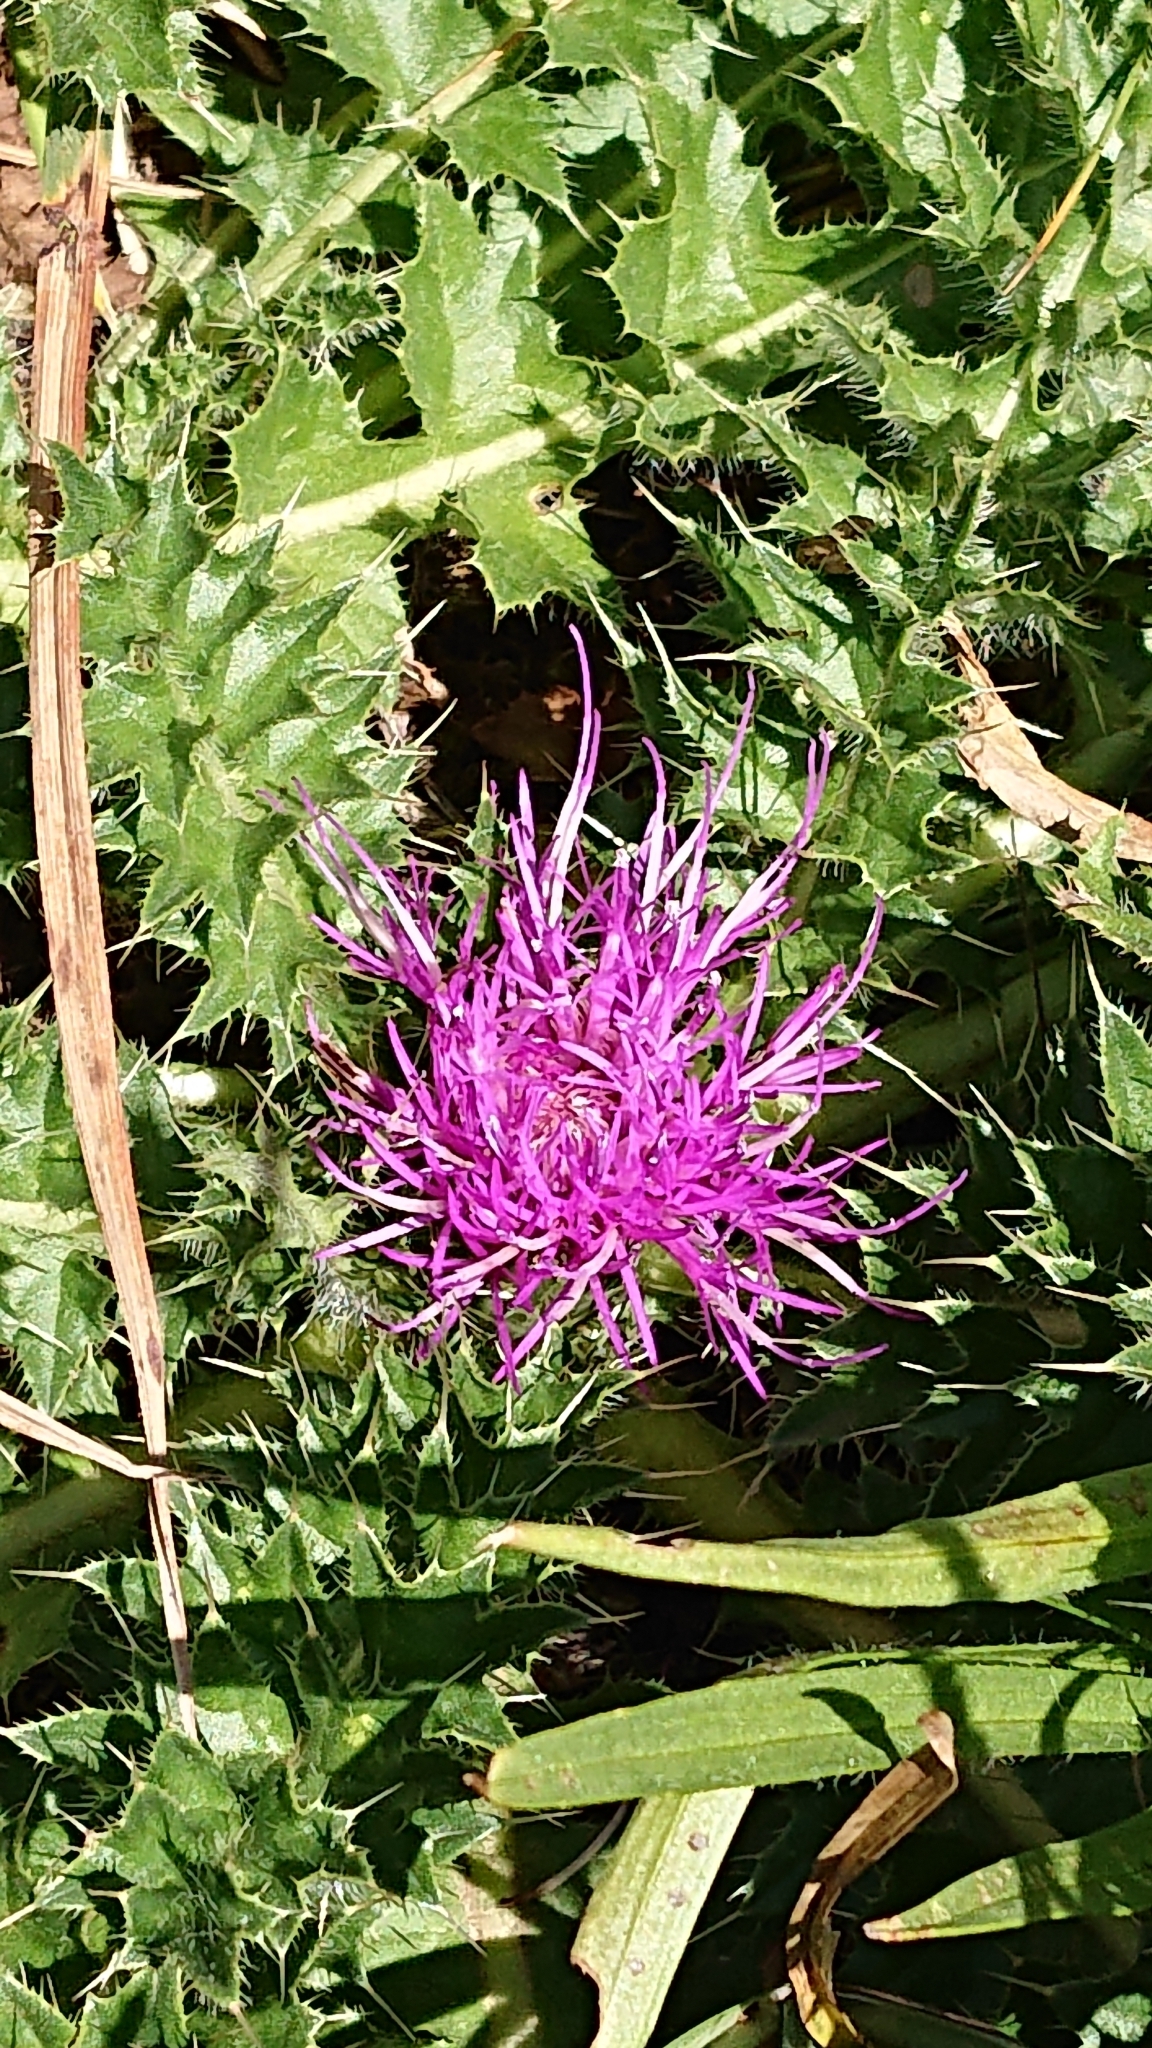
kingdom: Plantae
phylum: Tracheophyta
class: Magnoliopsida
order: Asterales
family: Asteraceae
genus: Cirsium
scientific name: Cirsium acaulon
